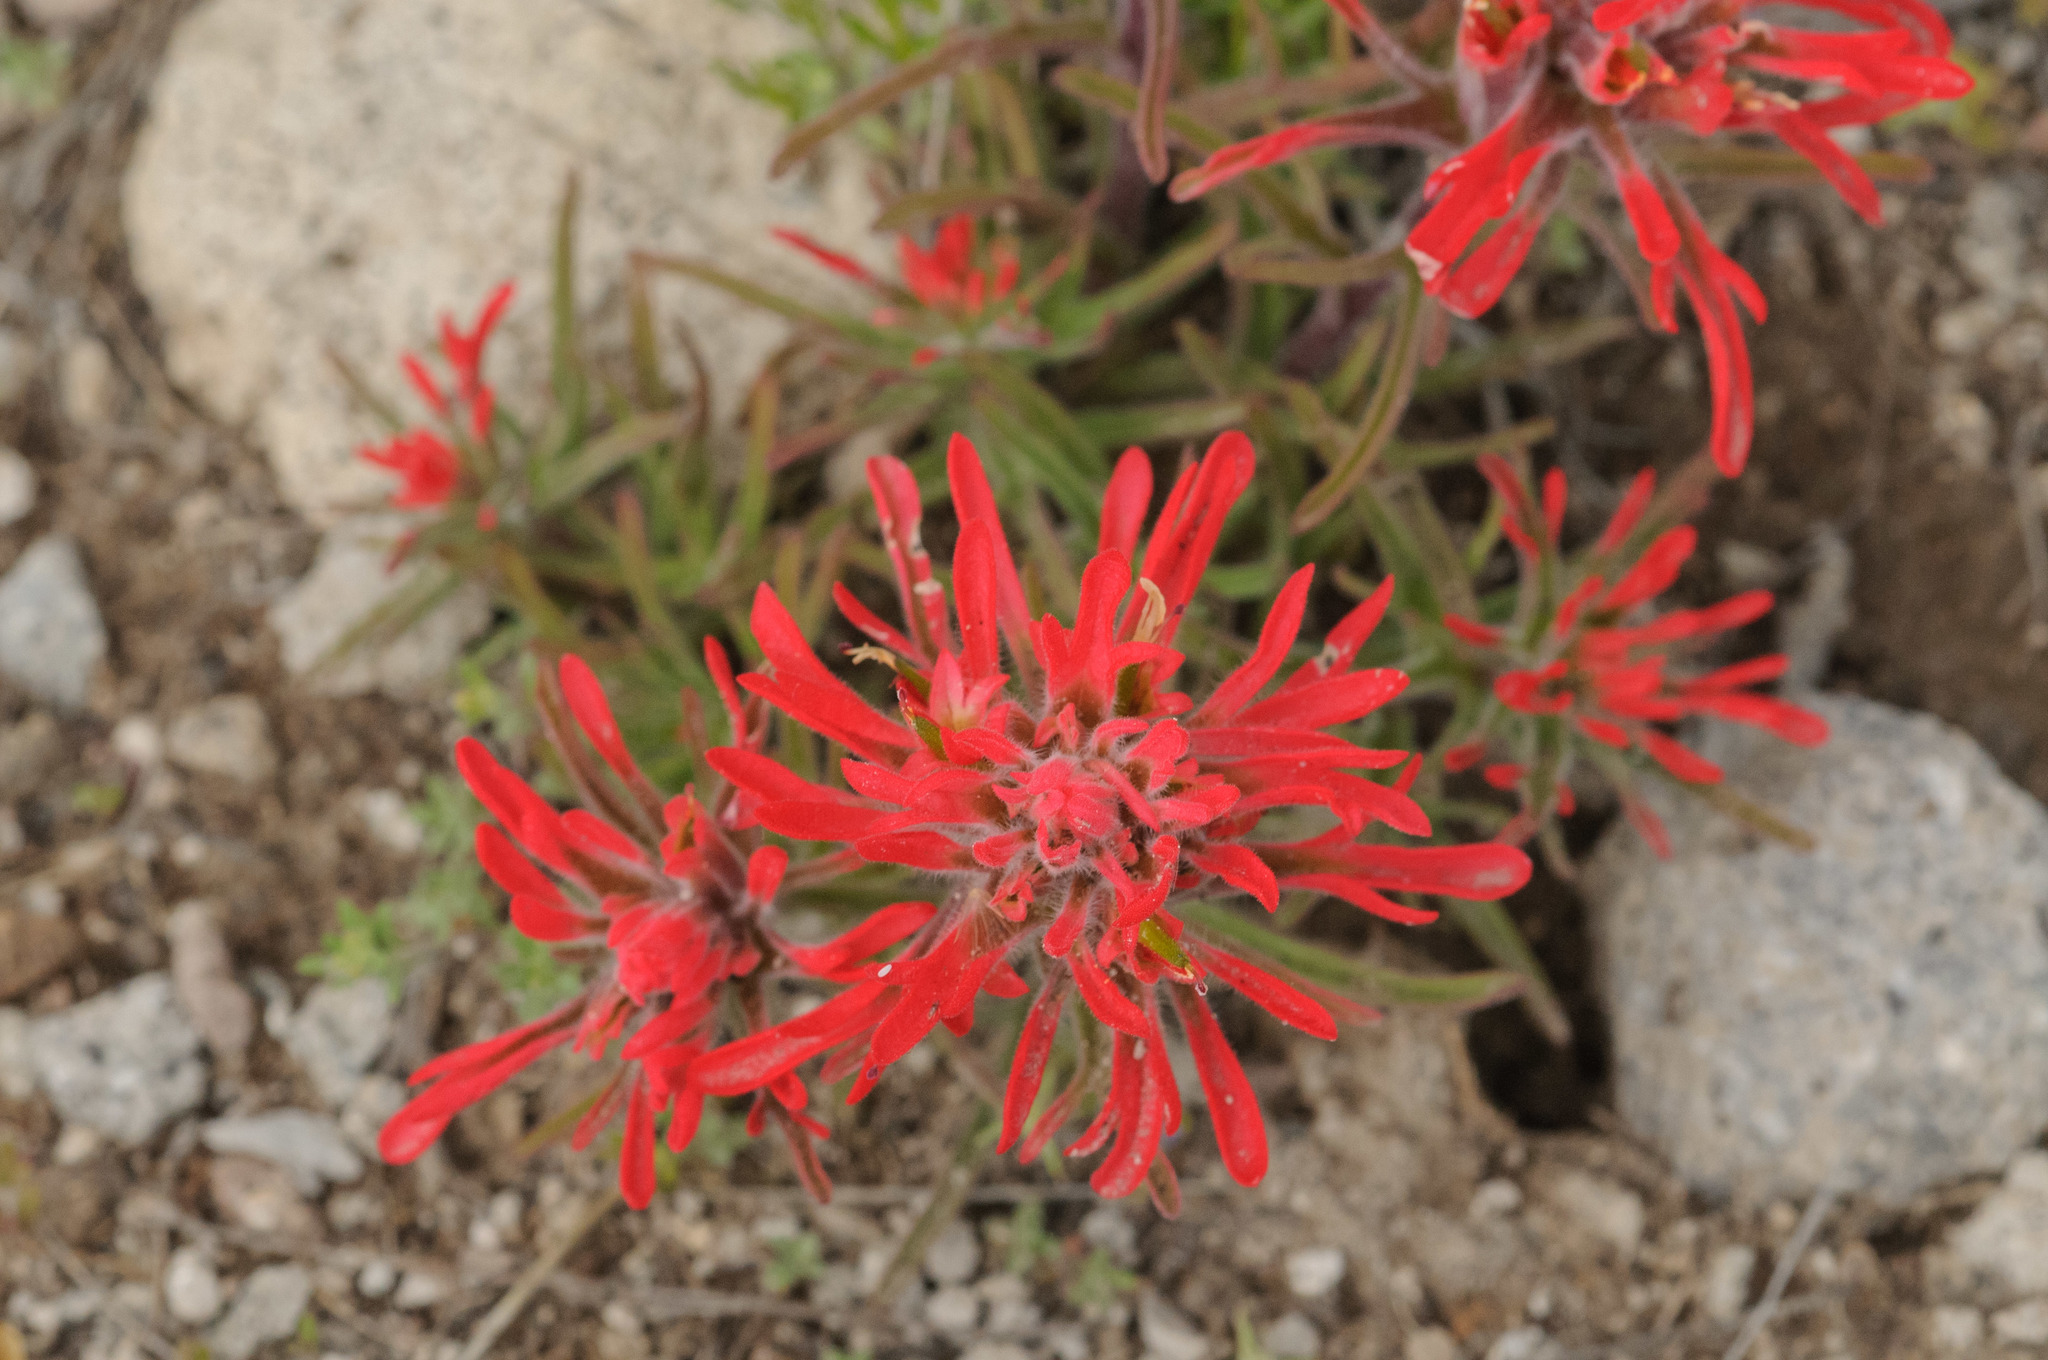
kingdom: Plantae
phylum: Tracheophyta
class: Magnoliopsida
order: Lamiales
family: Orobanchaceae
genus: Castilleja
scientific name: Castilleja chromosa
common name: Desert paintbrush
